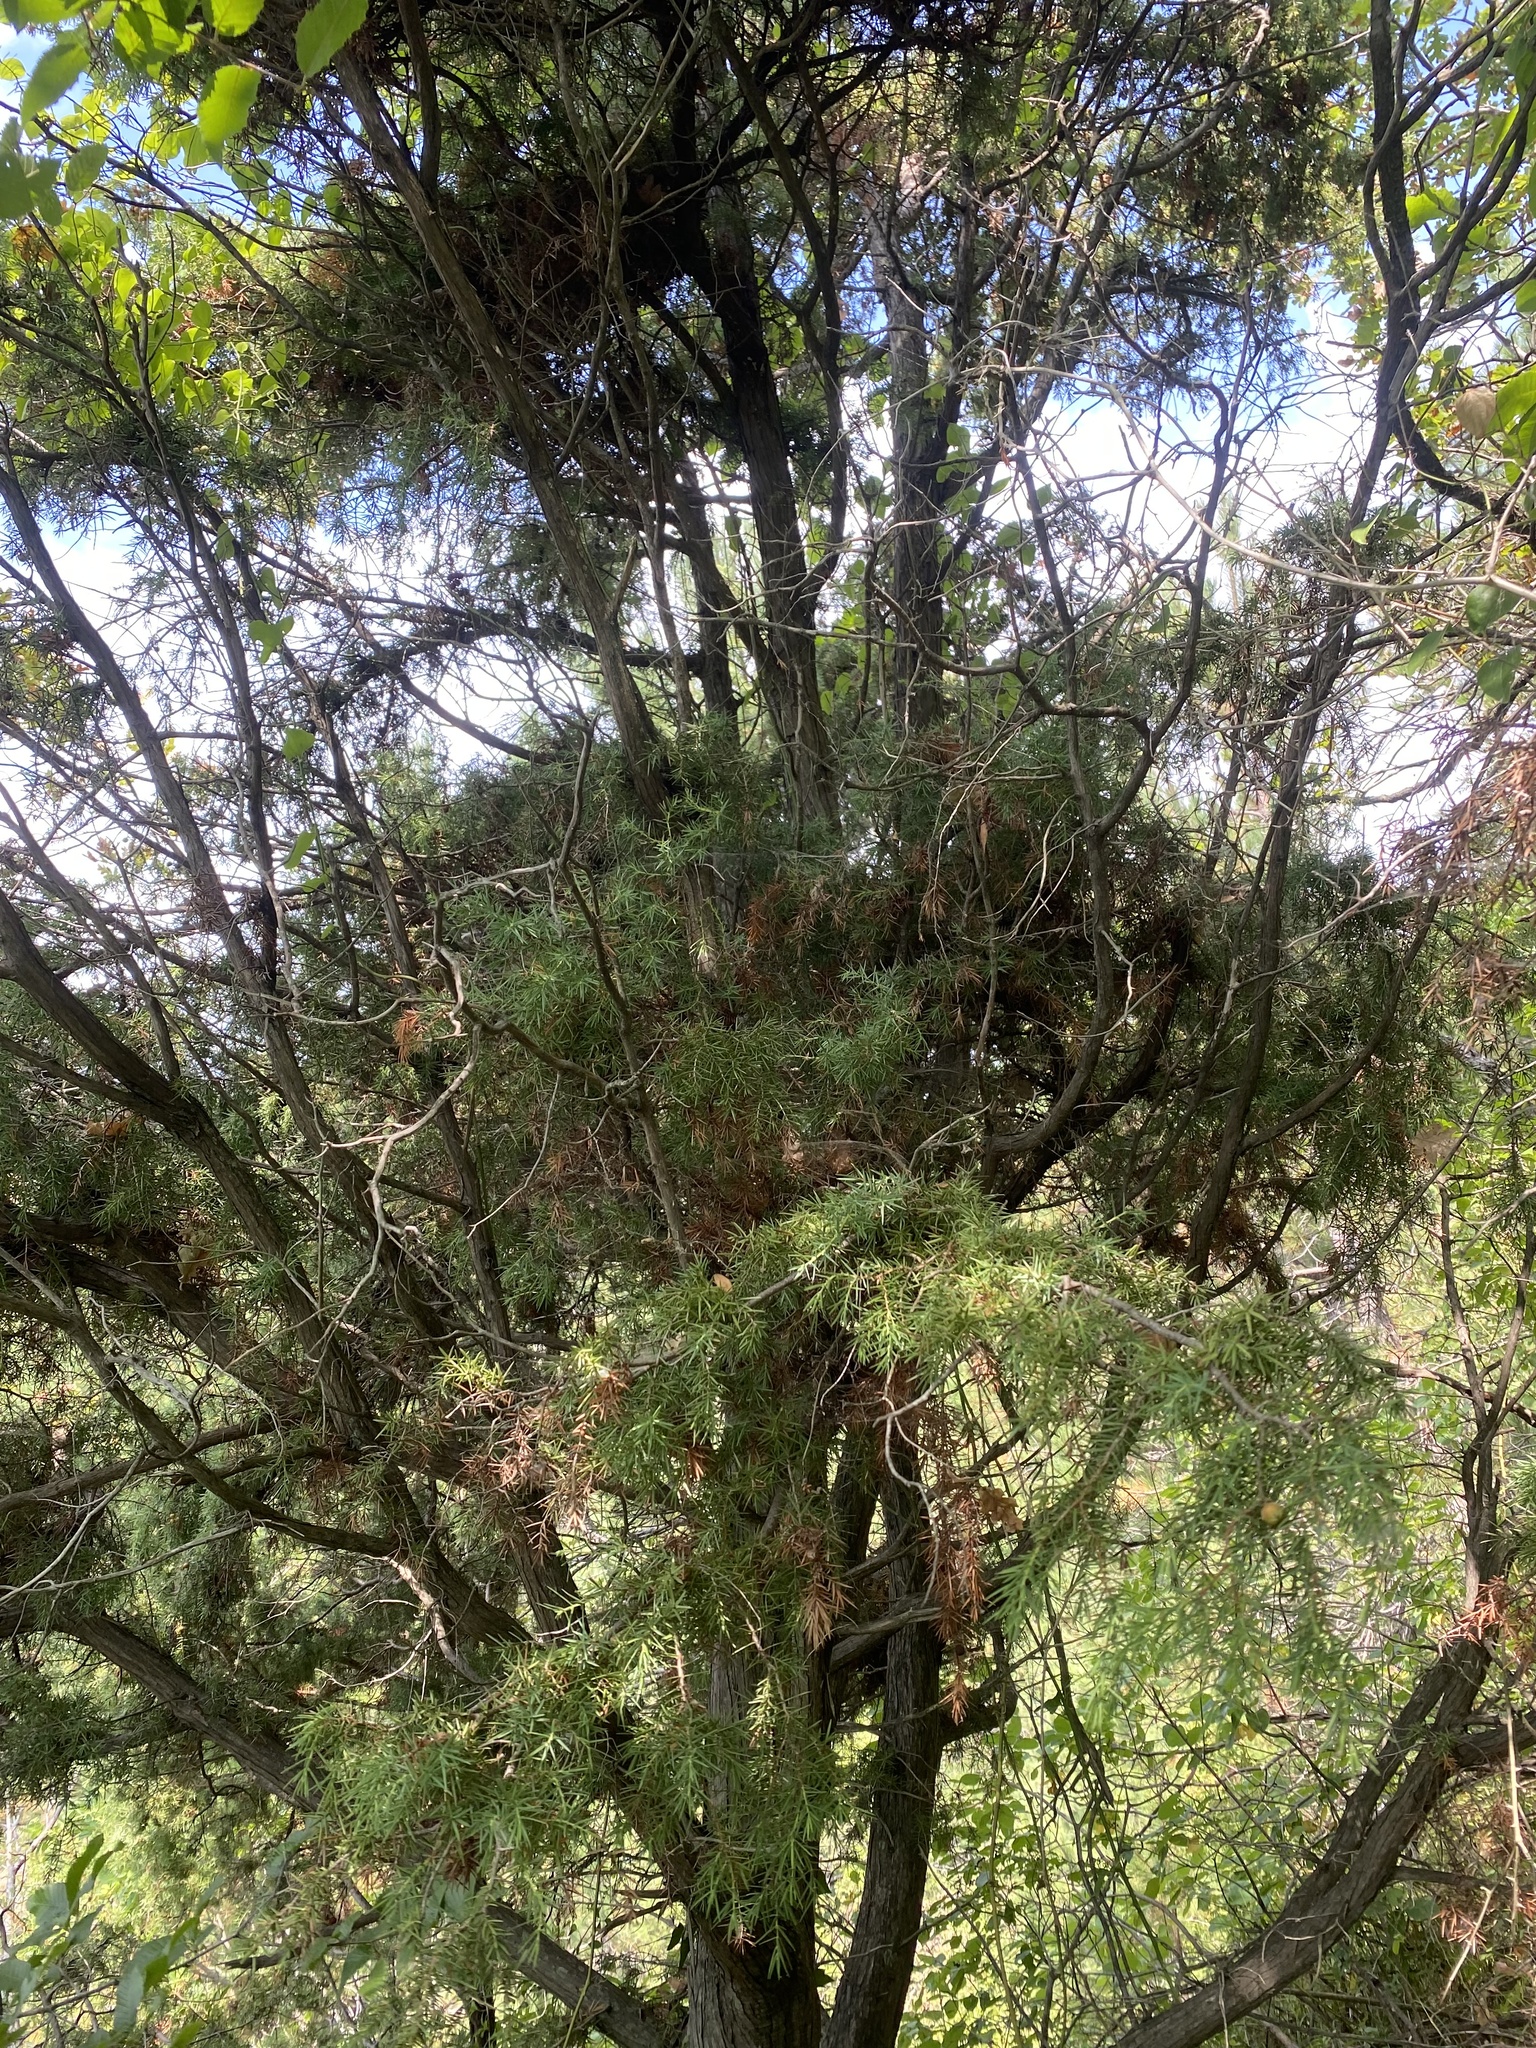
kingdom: Plantae
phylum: Tracheophyta
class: Pinopsida
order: Pinales
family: Cupressaceae
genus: Juniperus
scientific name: Juniperus oxycedrus
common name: Prickly juniper
